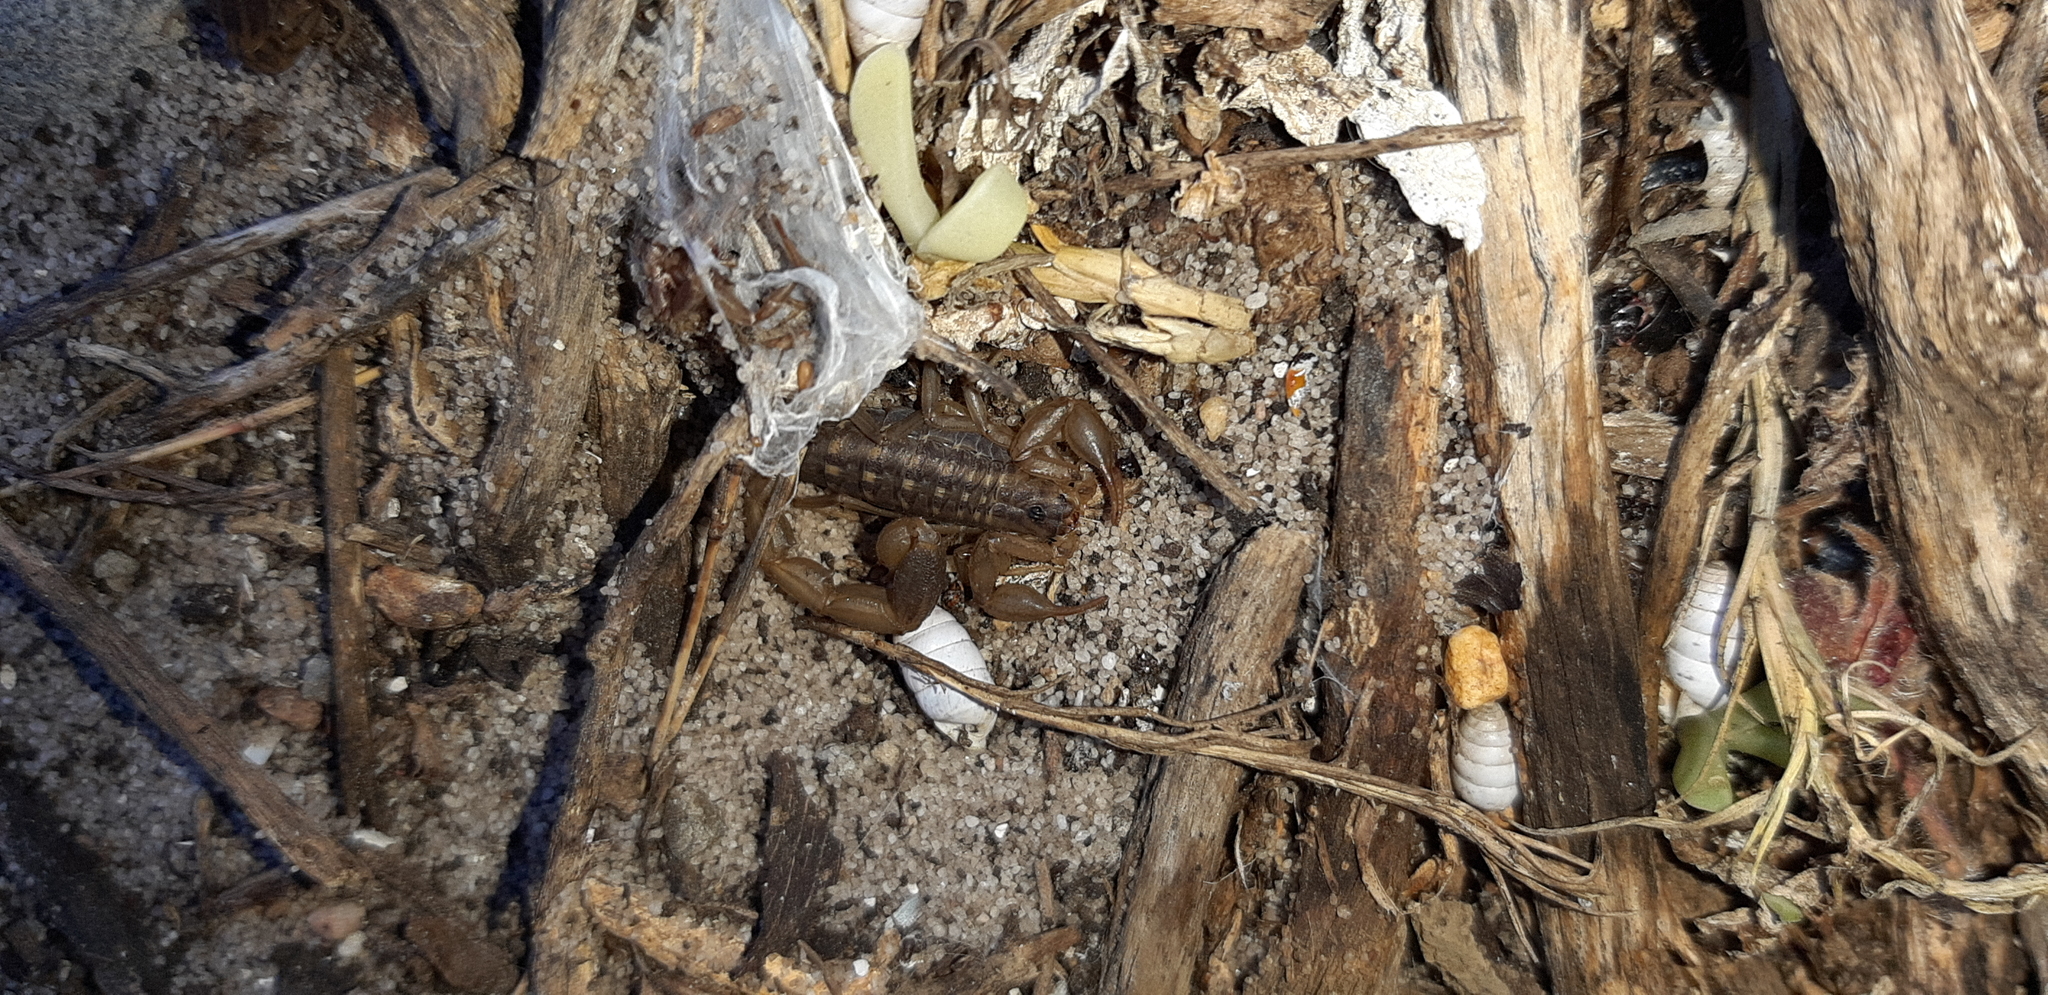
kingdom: Animalia
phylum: Arthropoda
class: Arachnida
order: Scorpiones
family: Buthidae
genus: Uroplectes
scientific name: Uroplectes lineatus
